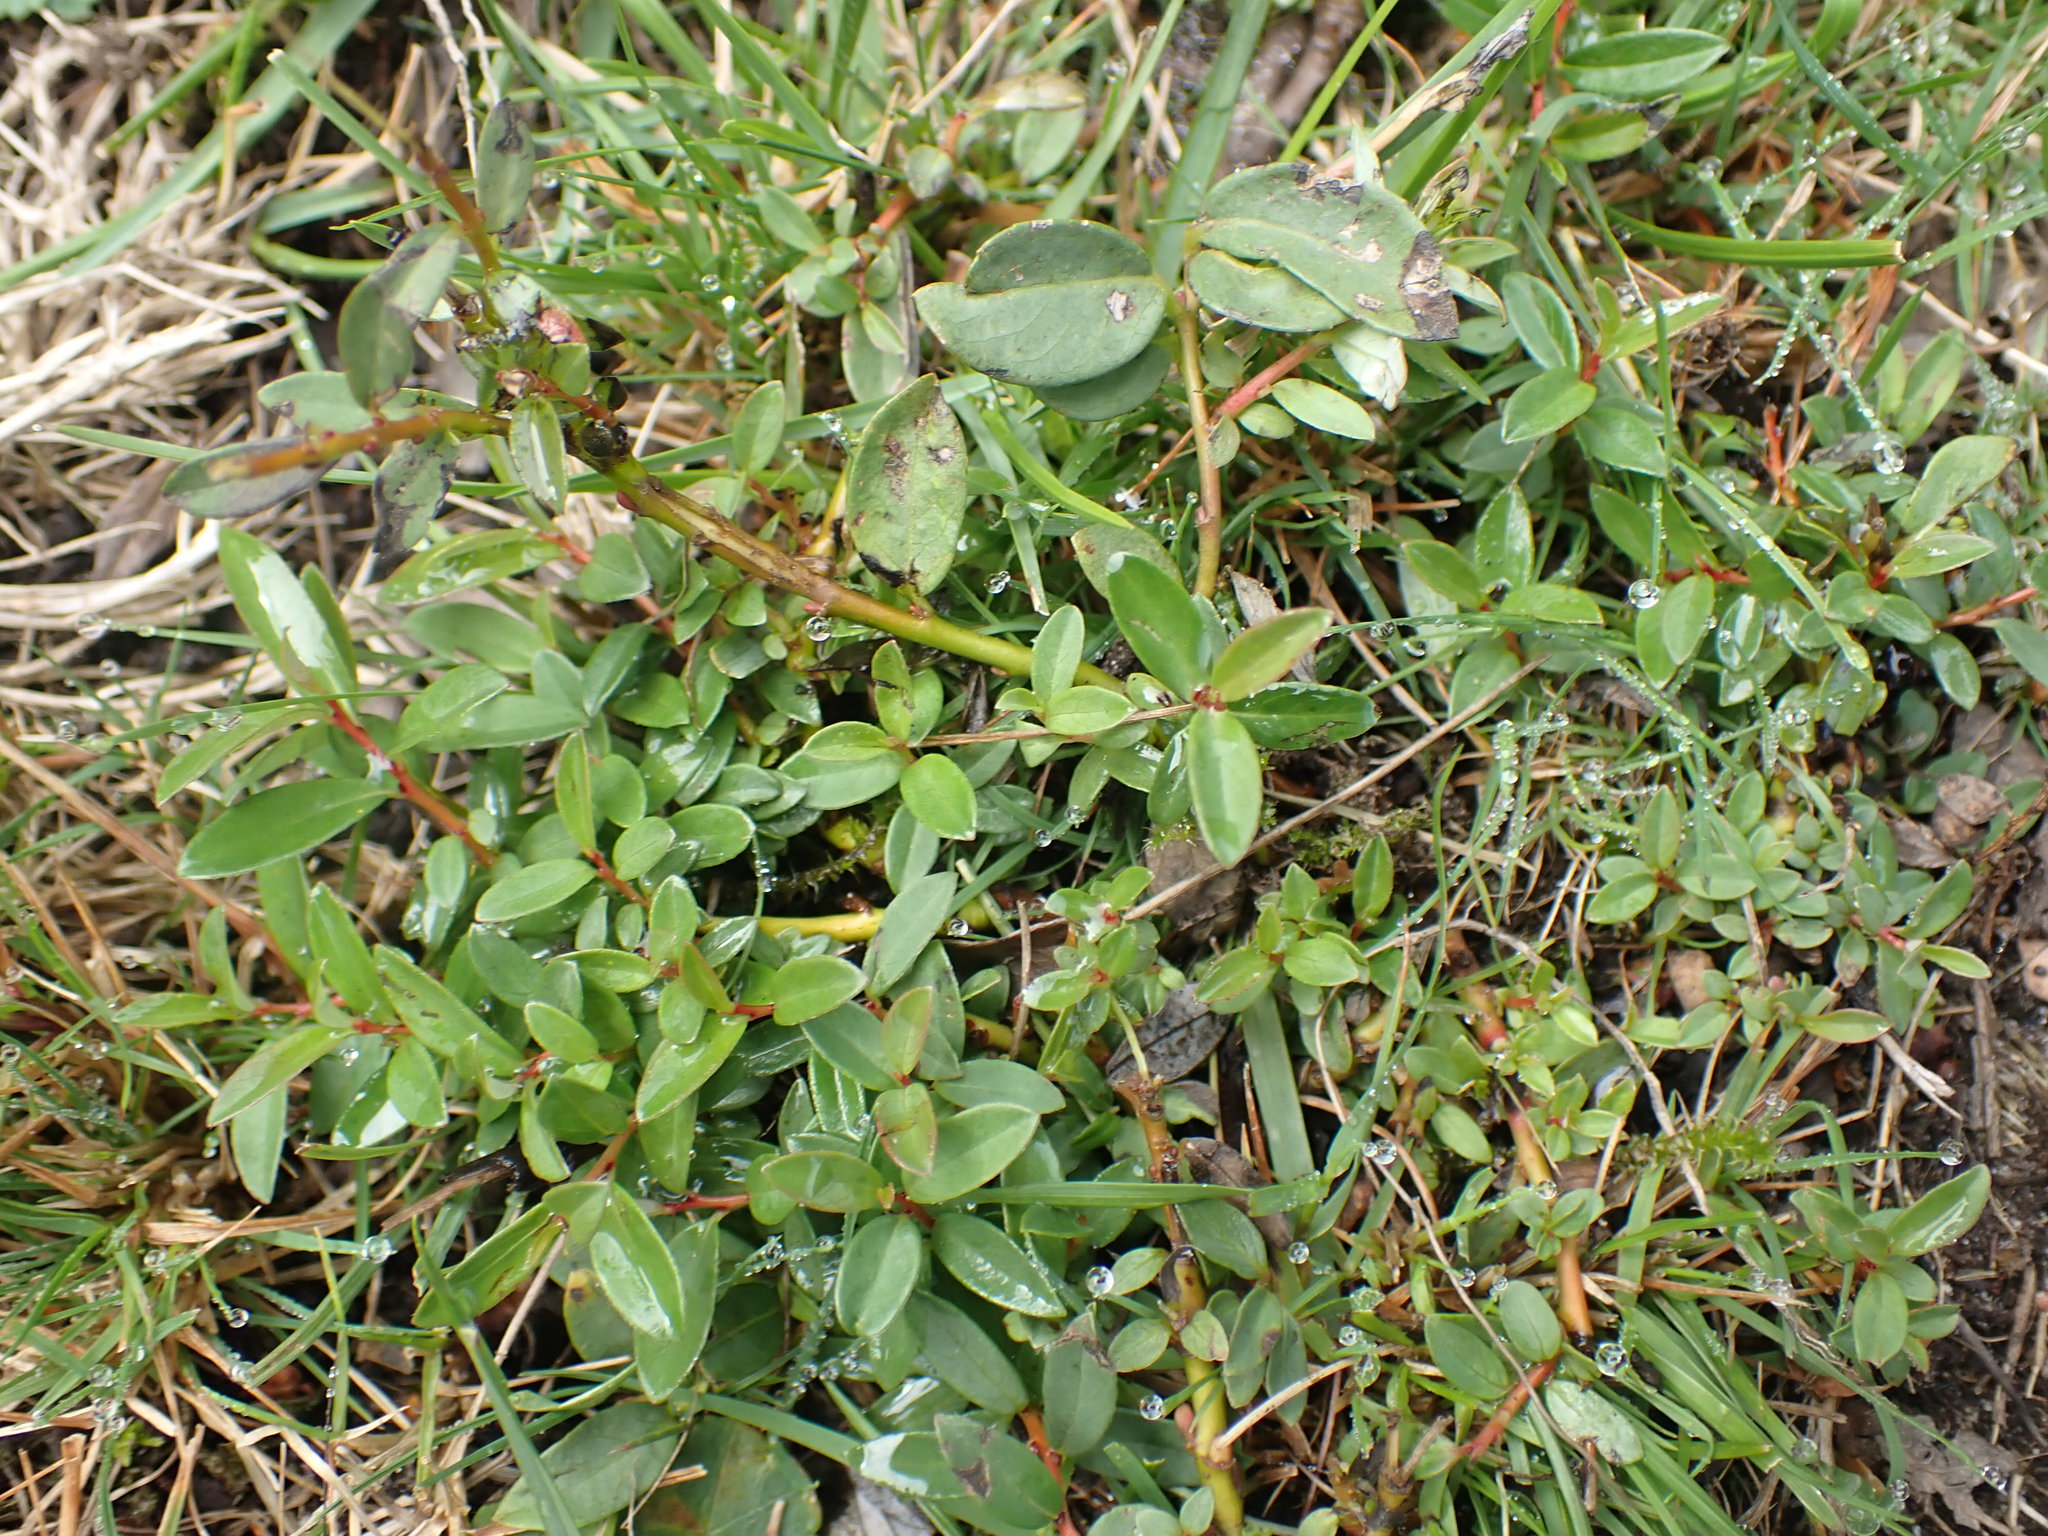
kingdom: Plantae
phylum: Tracheophyta
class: Magnoliopsida
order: Malpighiales
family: Salicaceae
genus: Salix
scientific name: Salix repens
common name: Creeping willow
